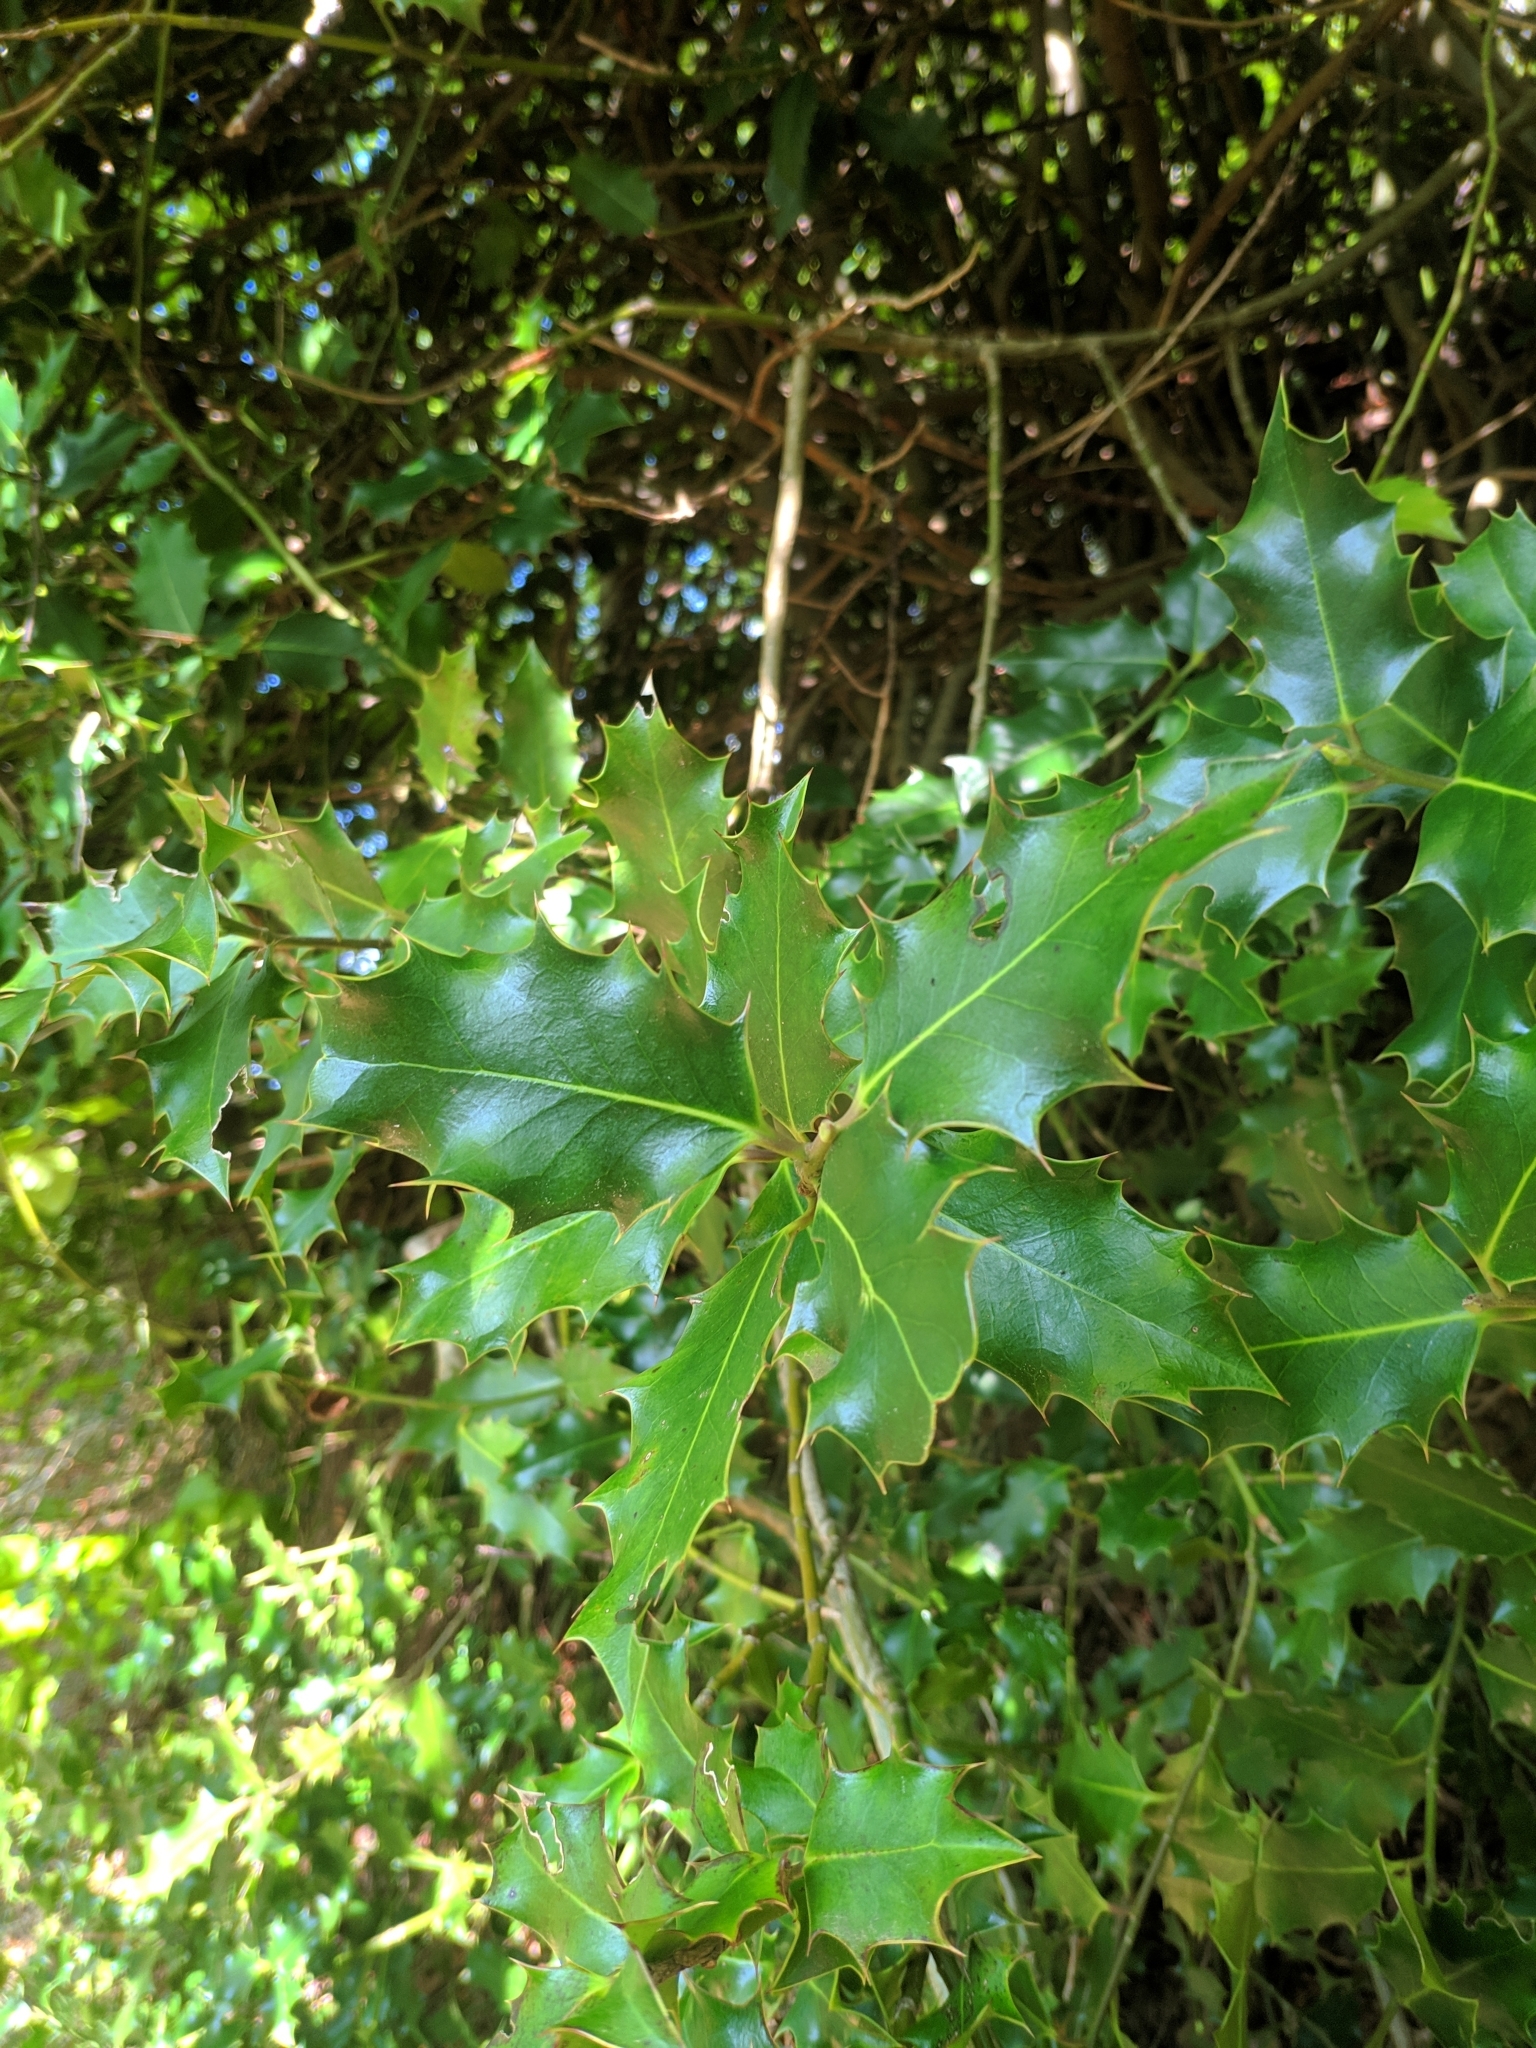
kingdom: Plantae
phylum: Tracheophyta
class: Magnoliopsida
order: Aquifoliales
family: Aquifoliaceae
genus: Ilex
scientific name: Ilex aquifolium
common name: English holly
